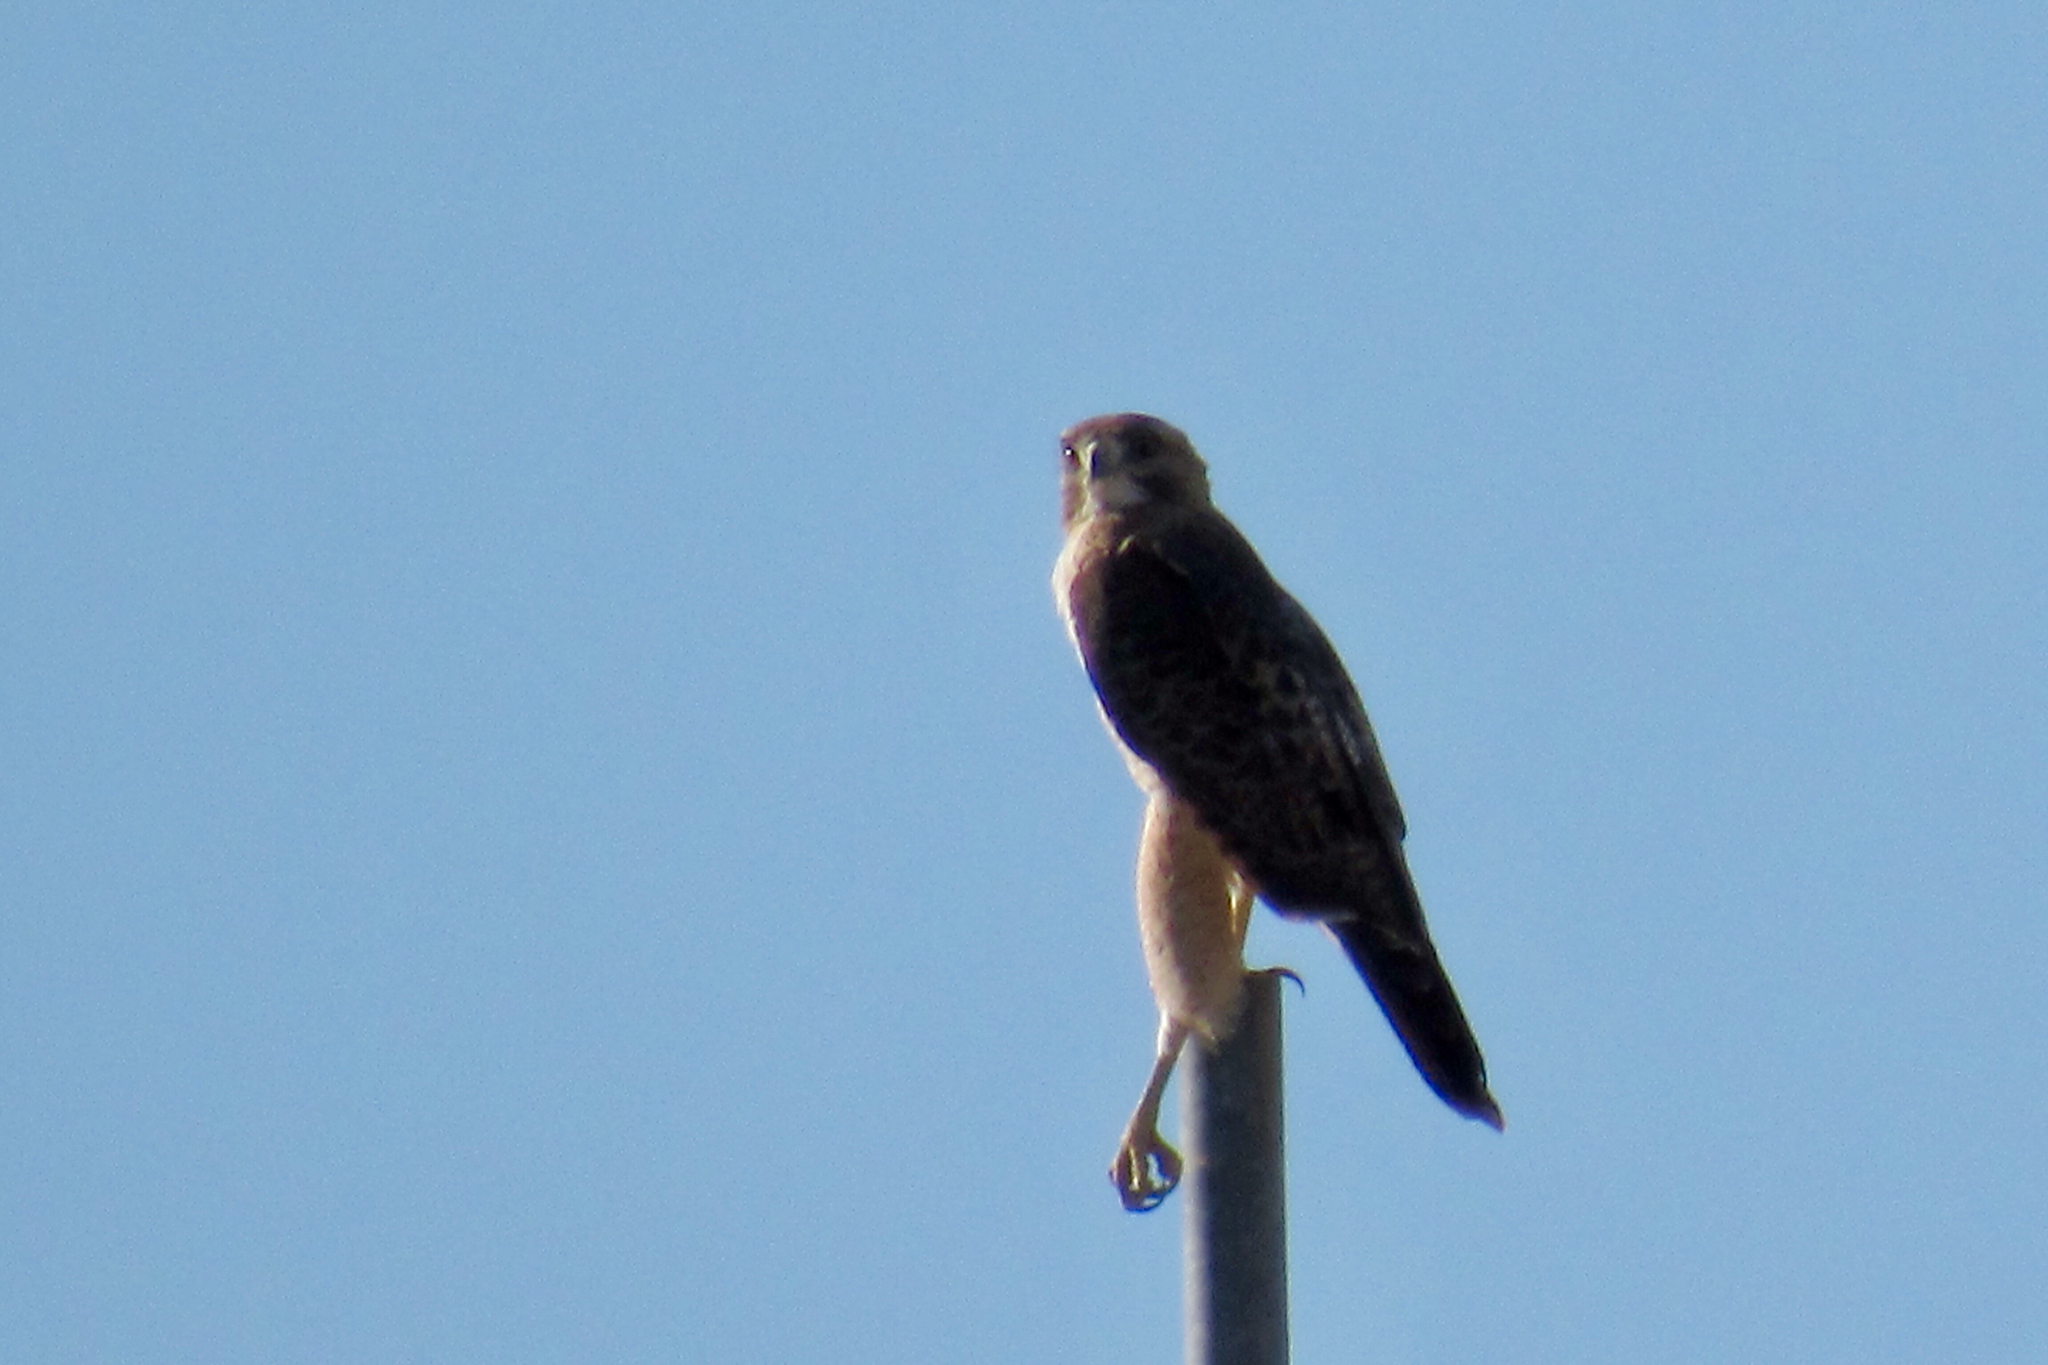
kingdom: Animalia
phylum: Chordata
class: Aves
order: Accipitriformes
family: Accipitridae
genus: Buteo
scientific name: Buteo jamaicensis
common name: Red-tailed hawk
